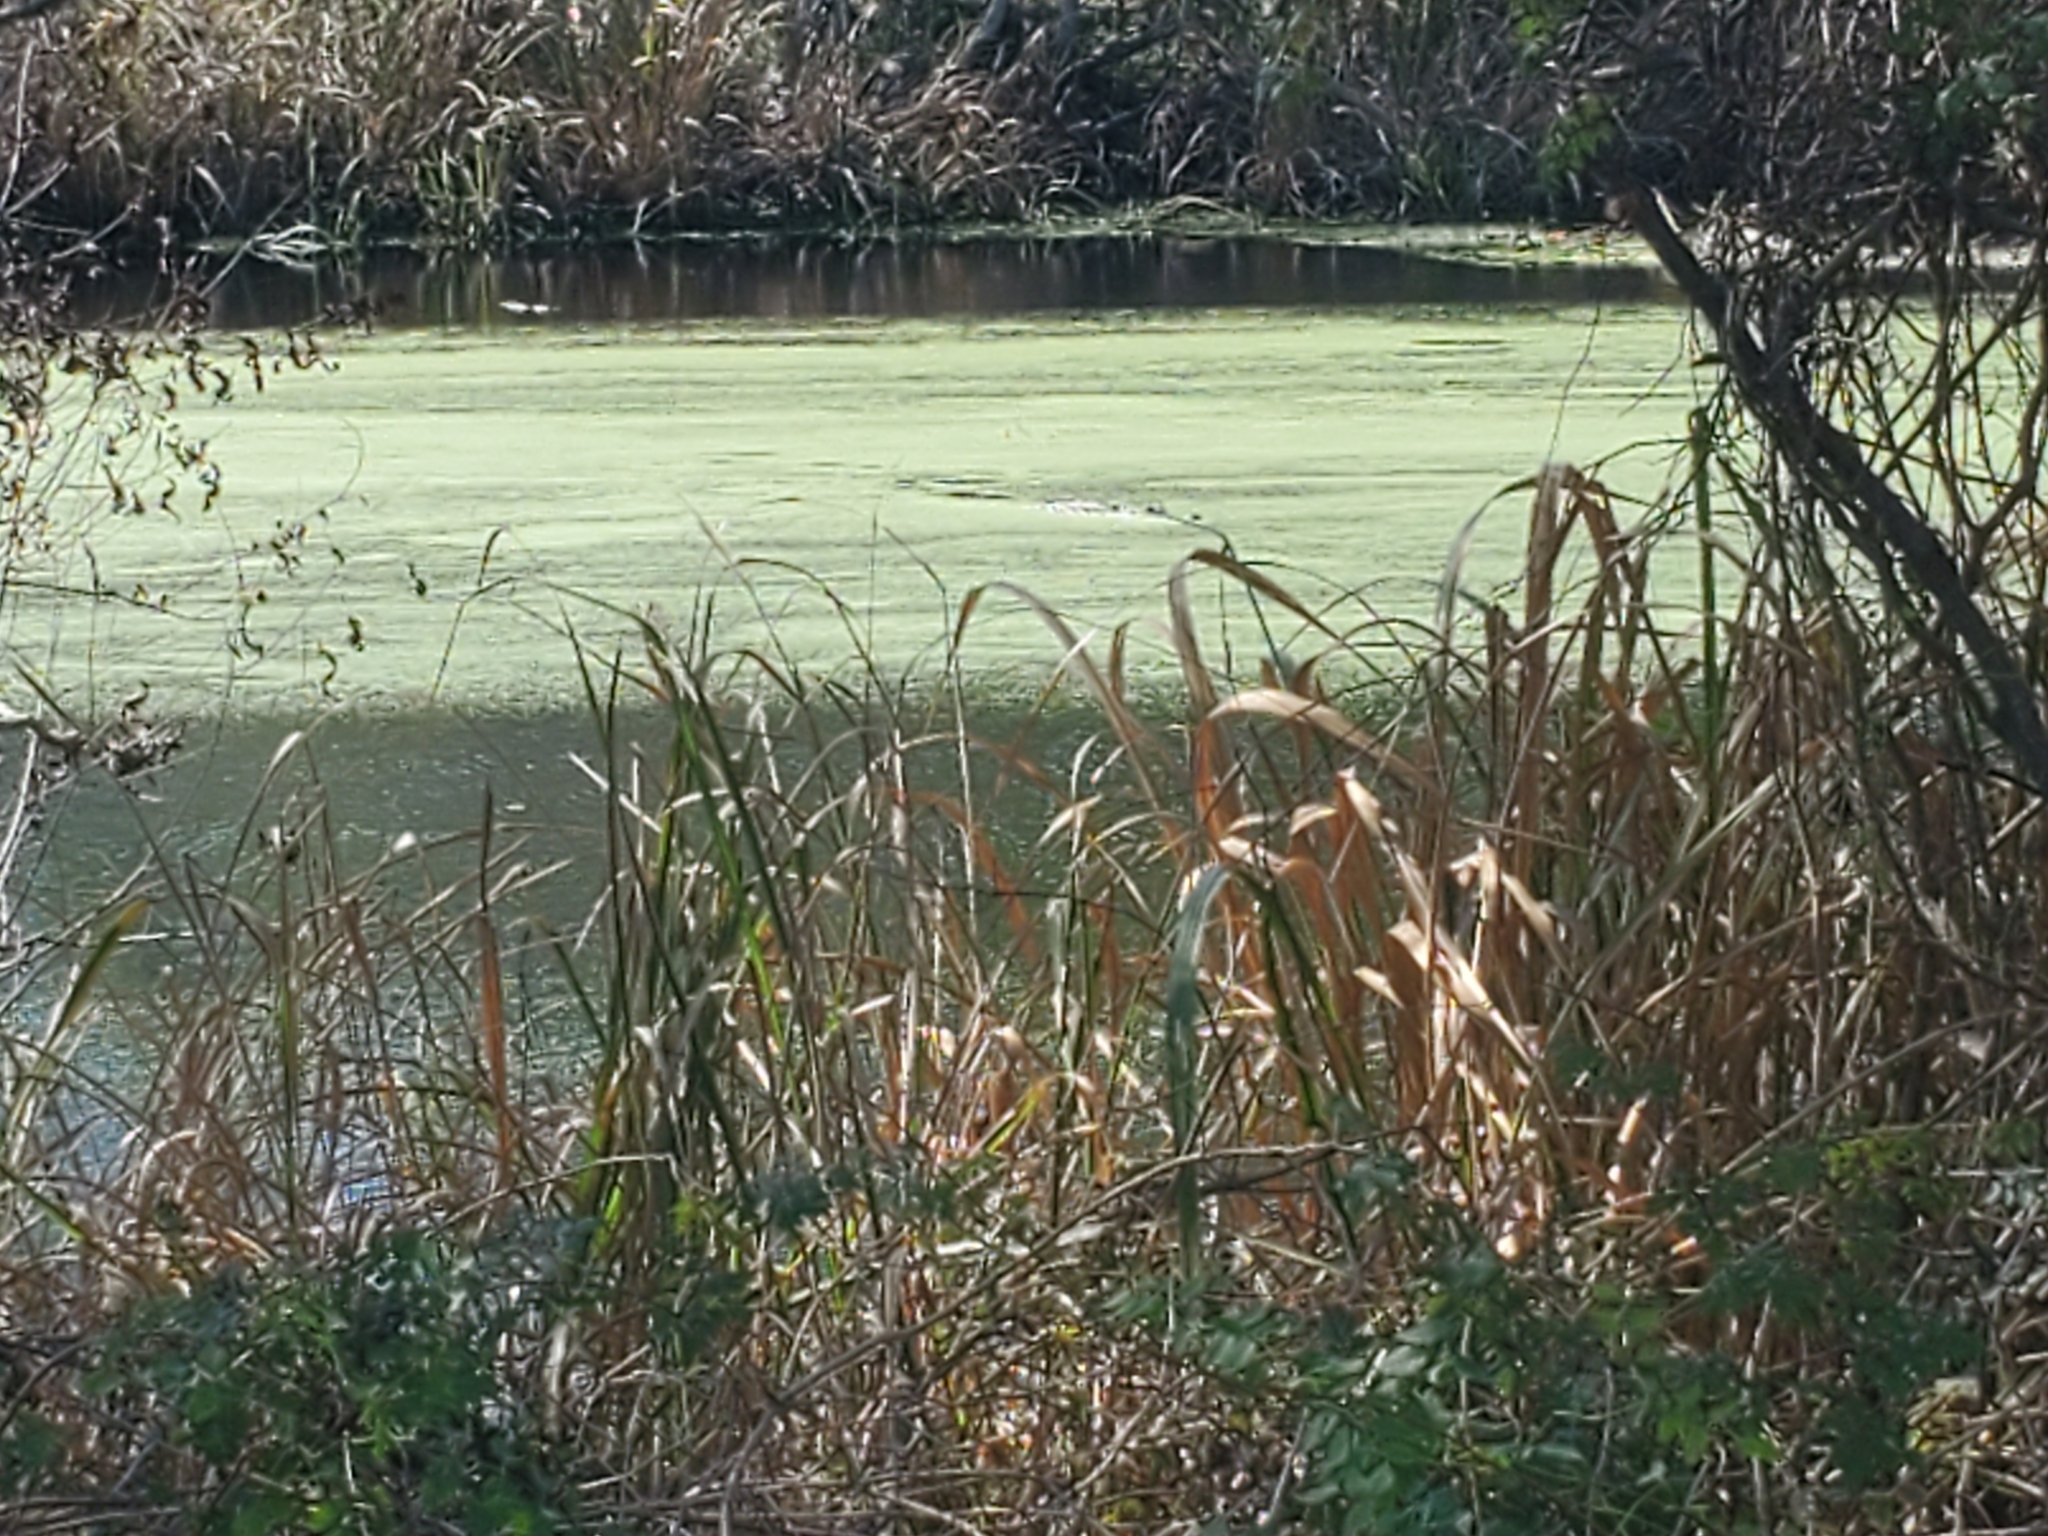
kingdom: Animalia
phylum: Chordata
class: Crocodylia
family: Alligatoridae
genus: Alligator
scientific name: Alligator mississippiensis
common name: American alligator
